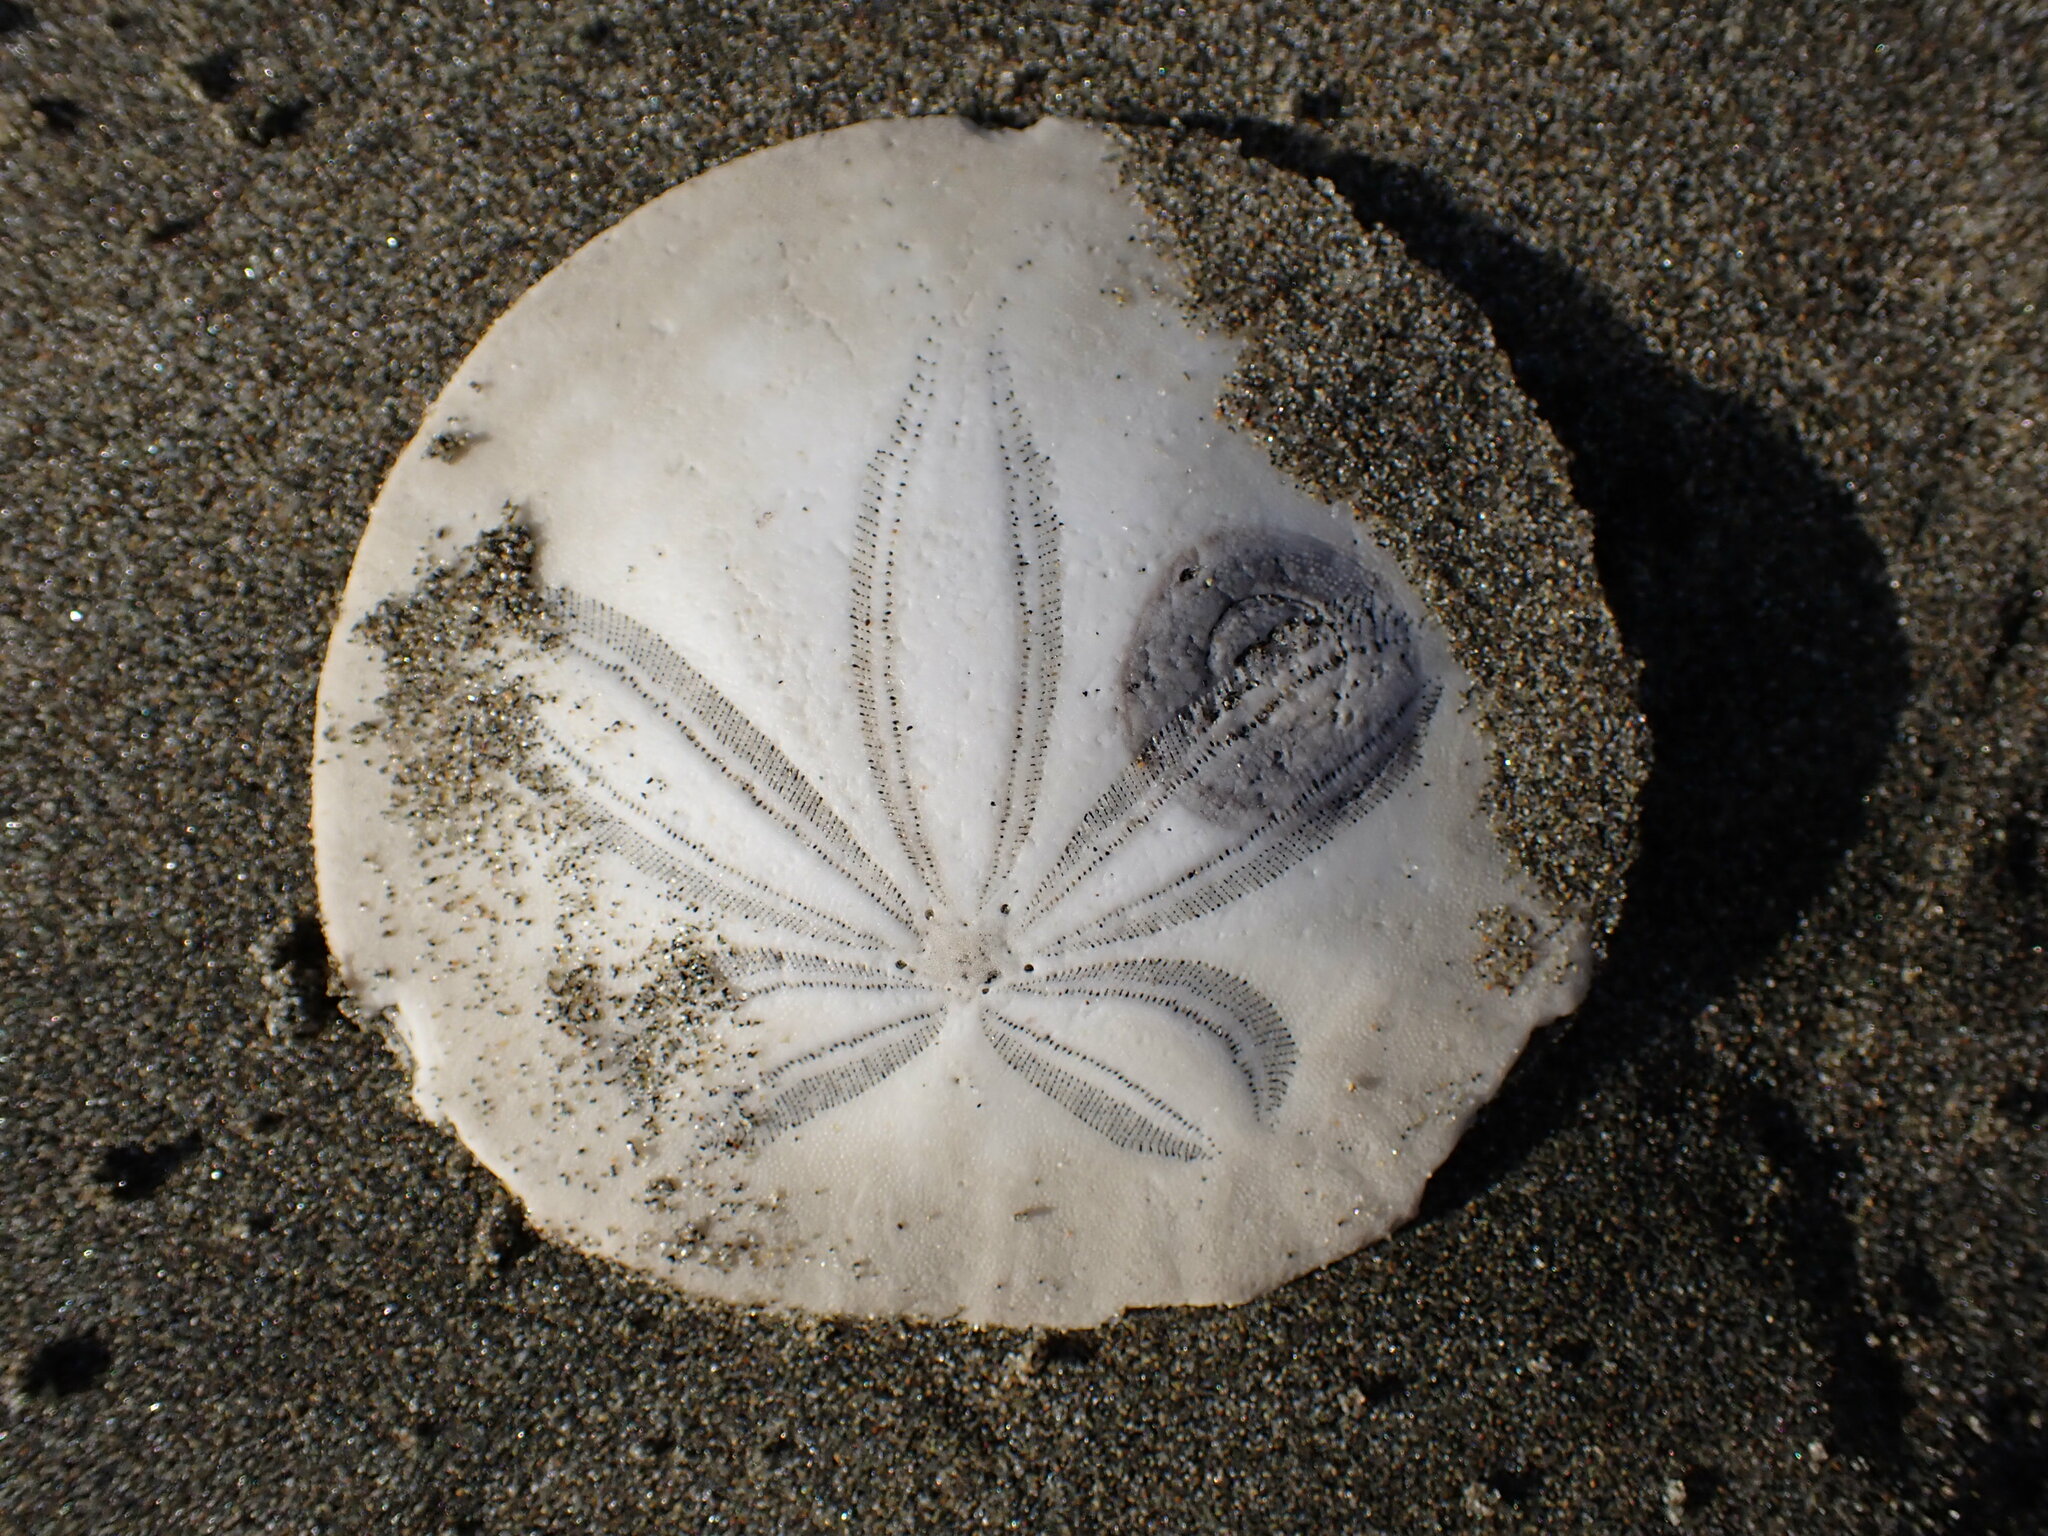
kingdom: Animalia
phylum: Echinodermata
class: Echinoidea
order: Echinolampadacea
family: Dendrasteridae
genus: Dendraster
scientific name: Dendraster excentricus
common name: Eccentric sand dollar sea urchin
